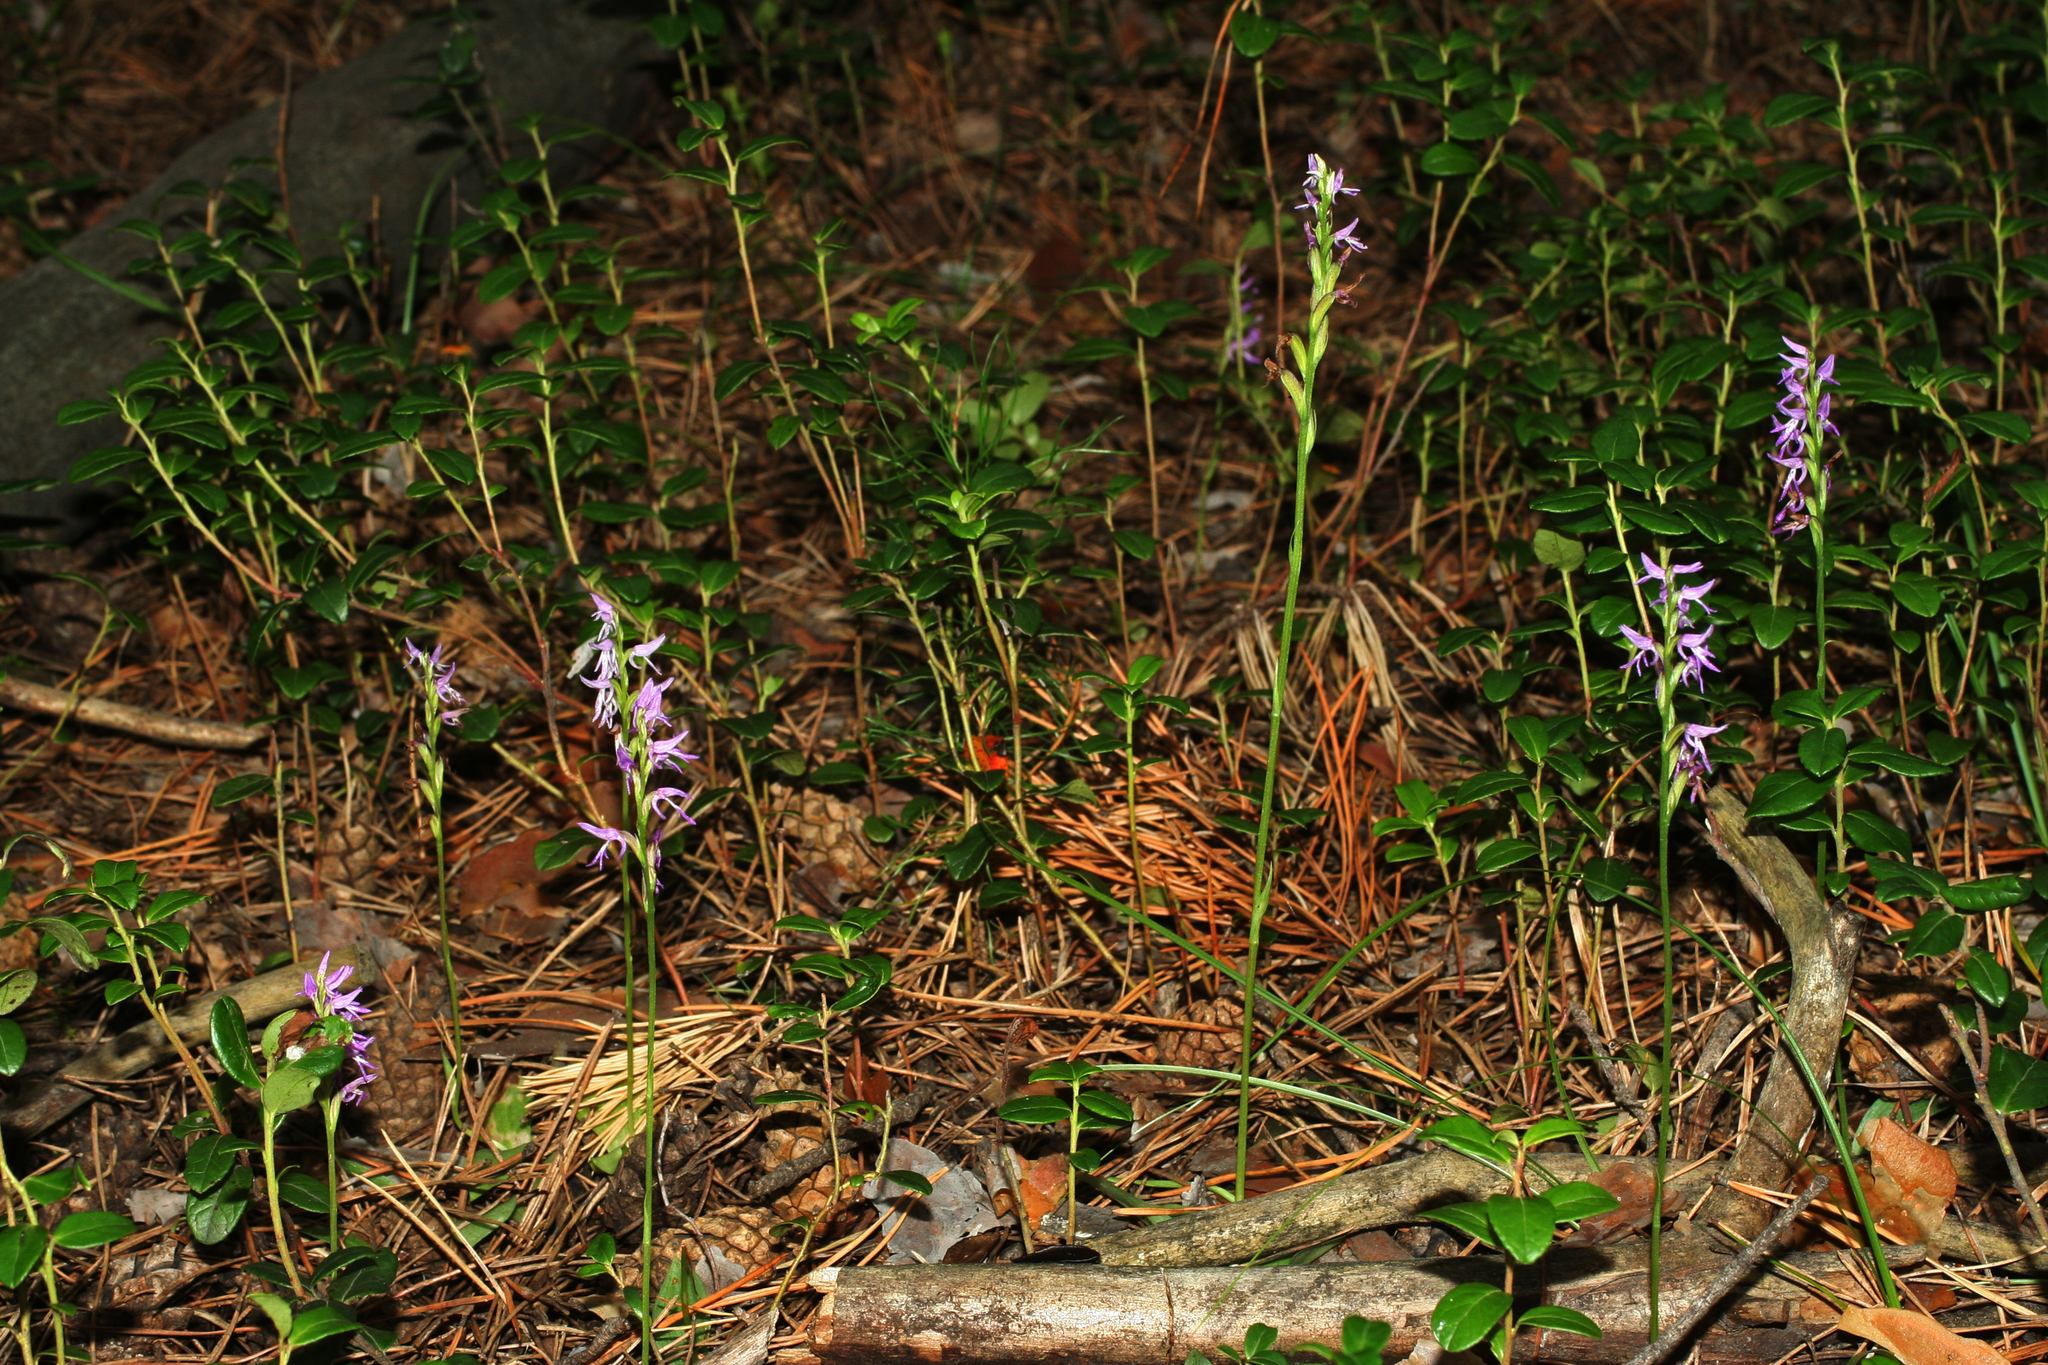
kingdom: Plantae
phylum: Tracheophyta
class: Liliopsida
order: Asparagales
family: Orchidaceae
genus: Hemipilia
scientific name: Hemipilia cucullata
